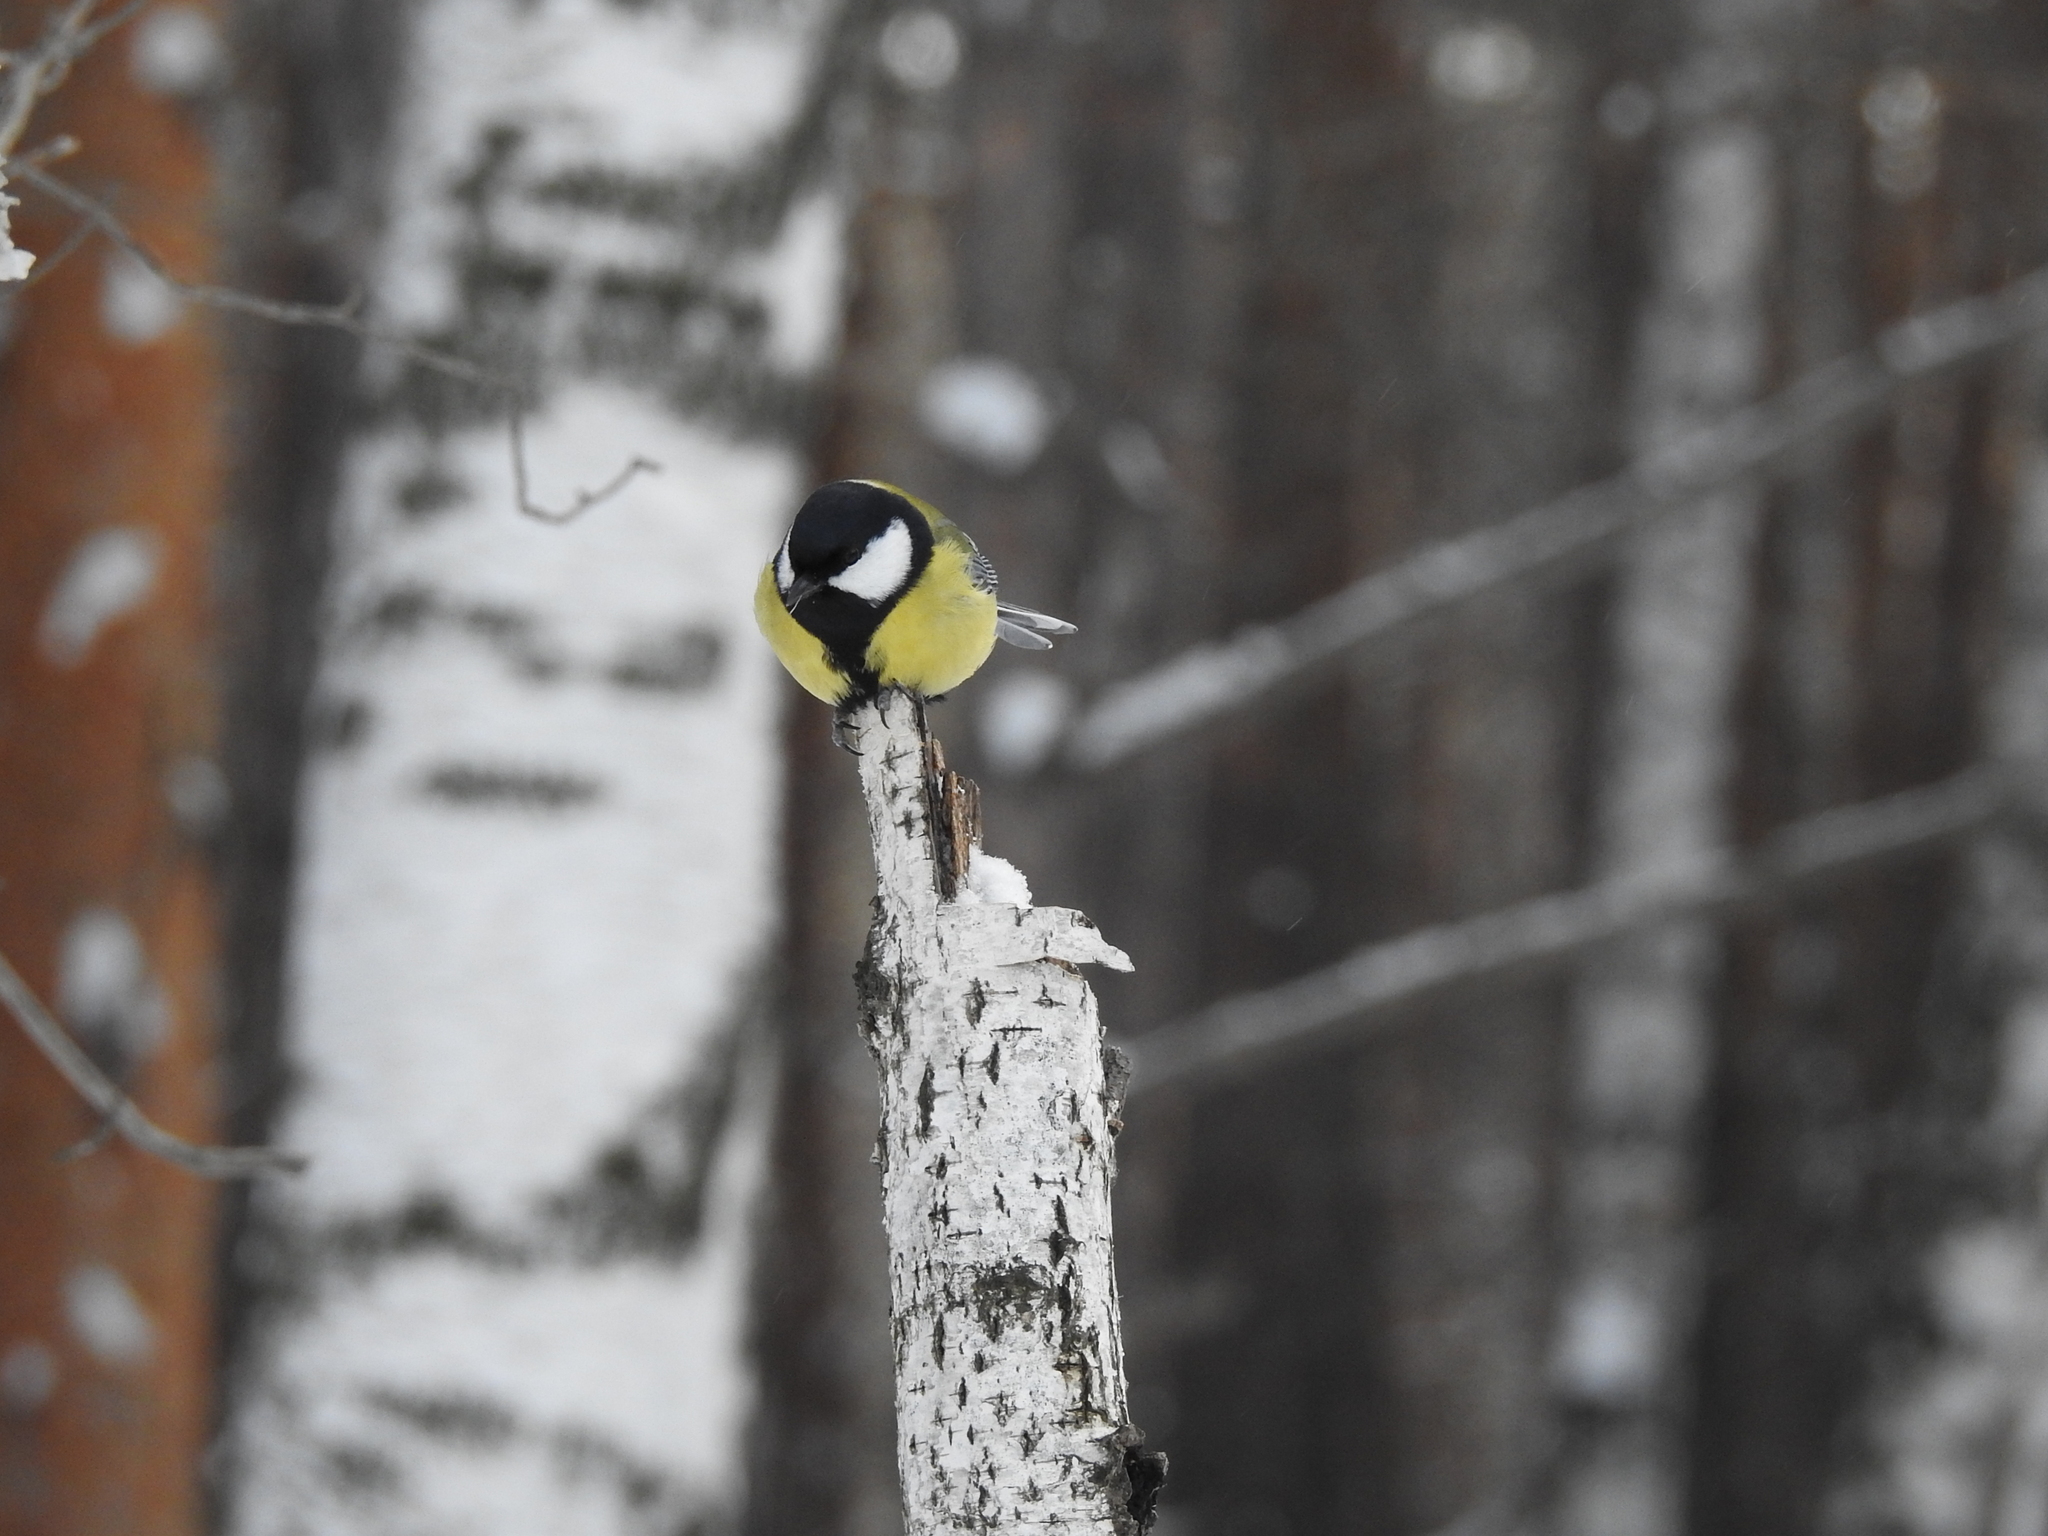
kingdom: Animalia
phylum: Chordata
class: Aves
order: Passeriformes
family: Paridae
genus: Parus
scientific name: Parus major
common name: Great tit
